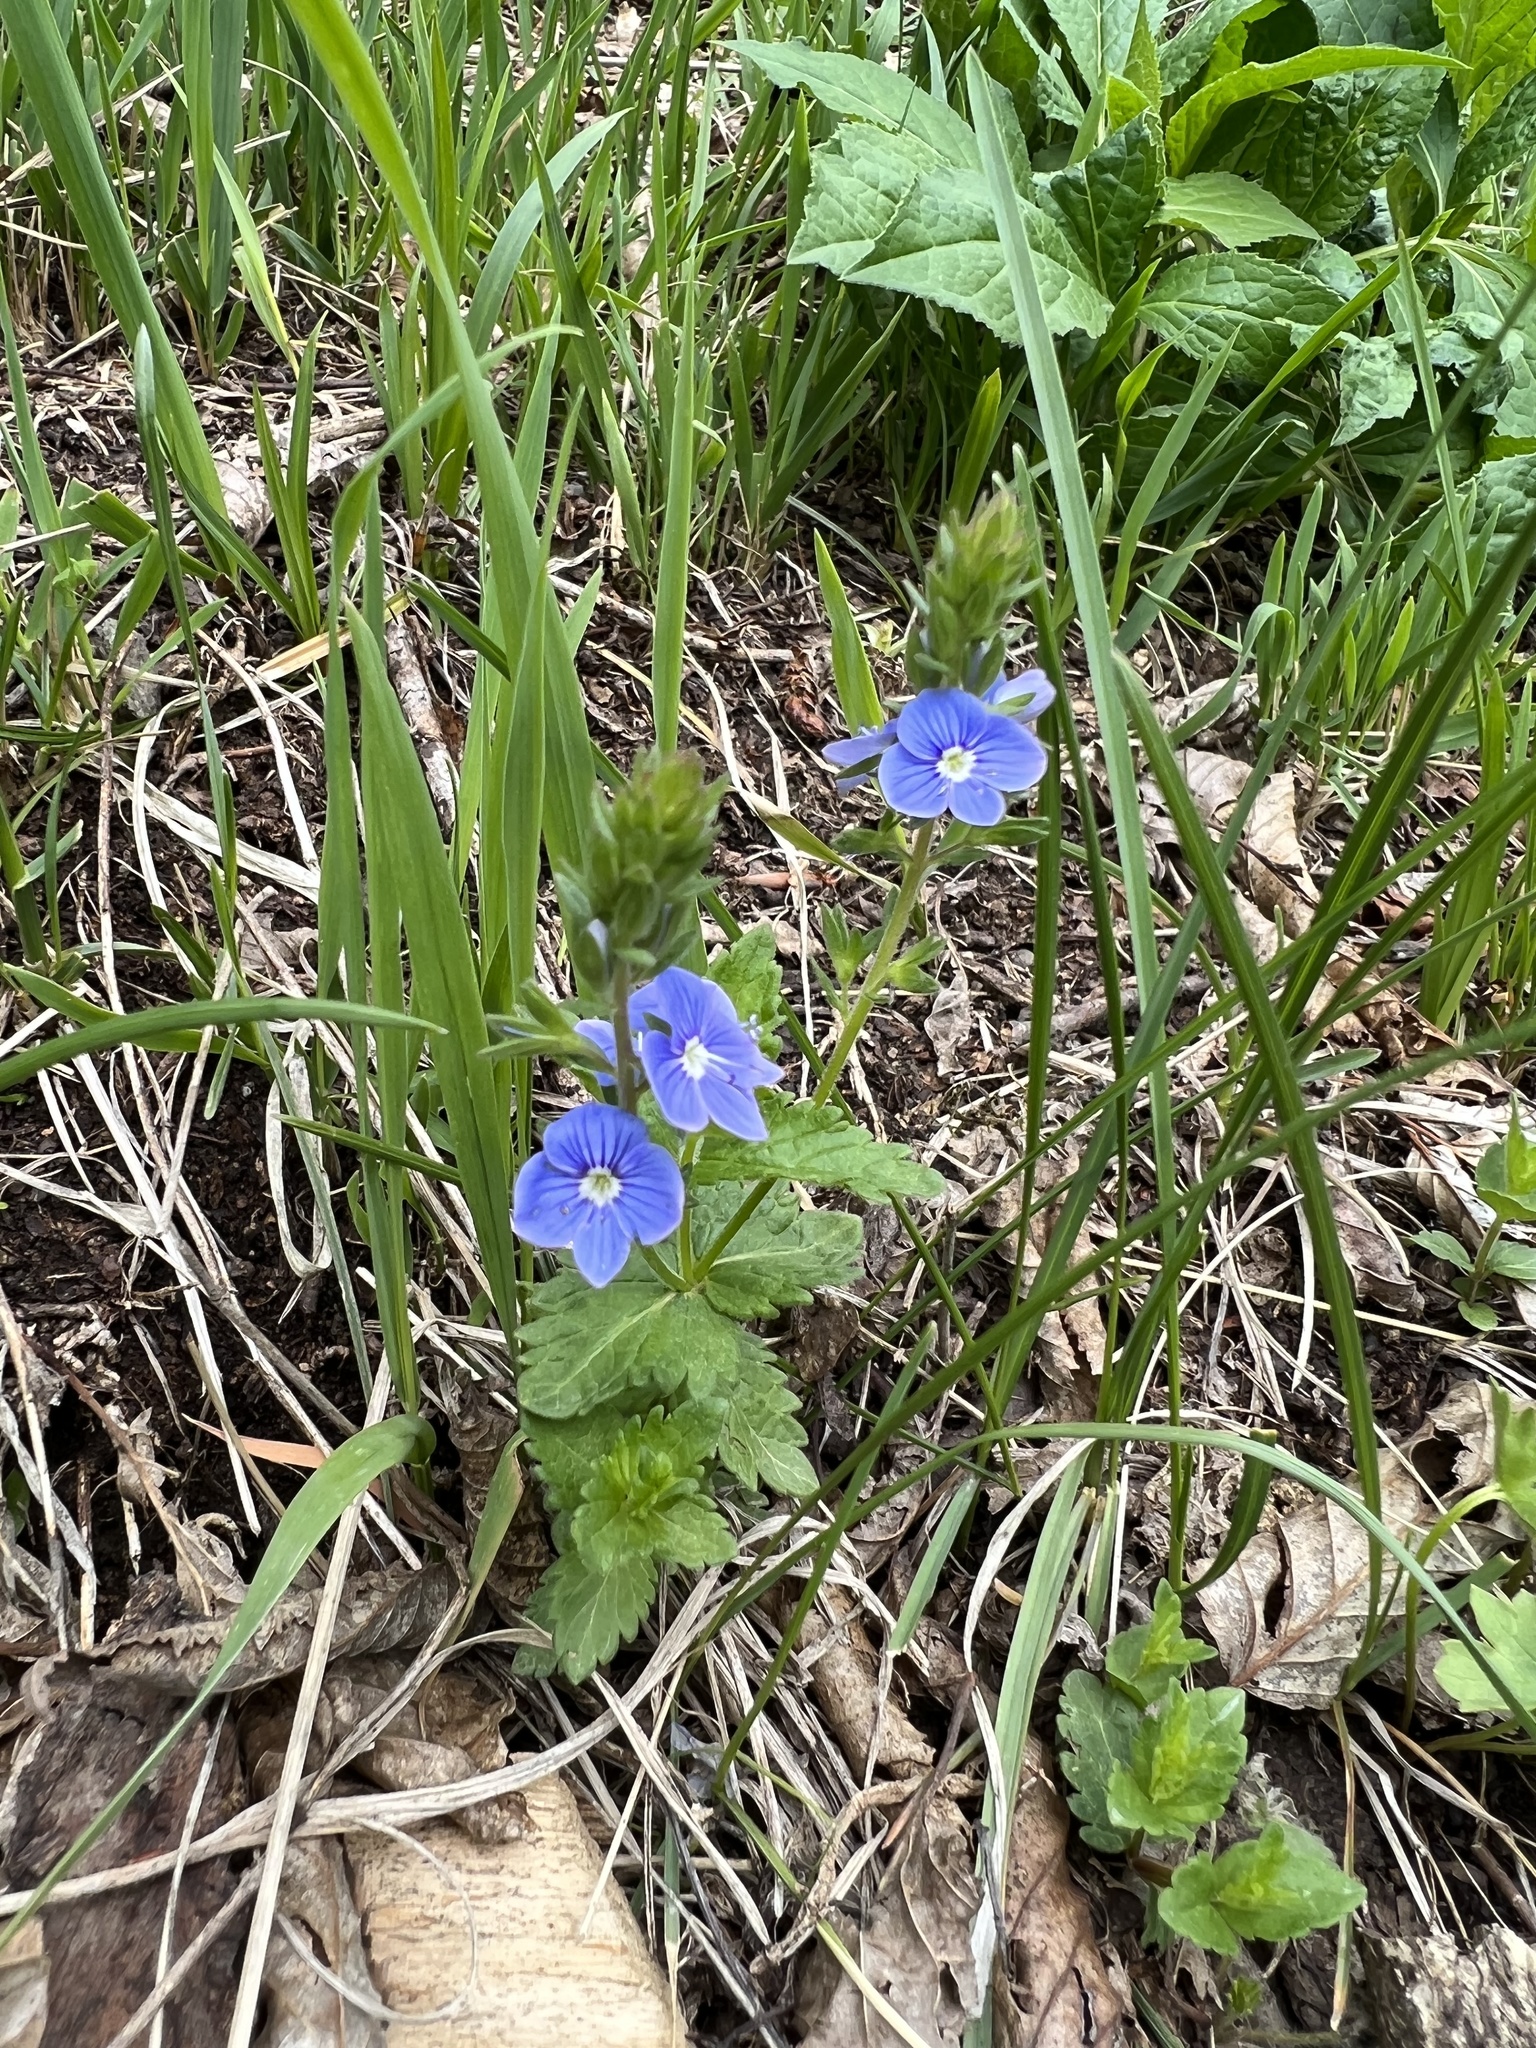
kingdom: Plantae
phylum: Tracheophyta
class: Magnoliopsida
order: Lamiales
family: Plantaginaceae
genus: Veronica
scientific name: Veronica chamaedrys
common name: Germander speedwell
